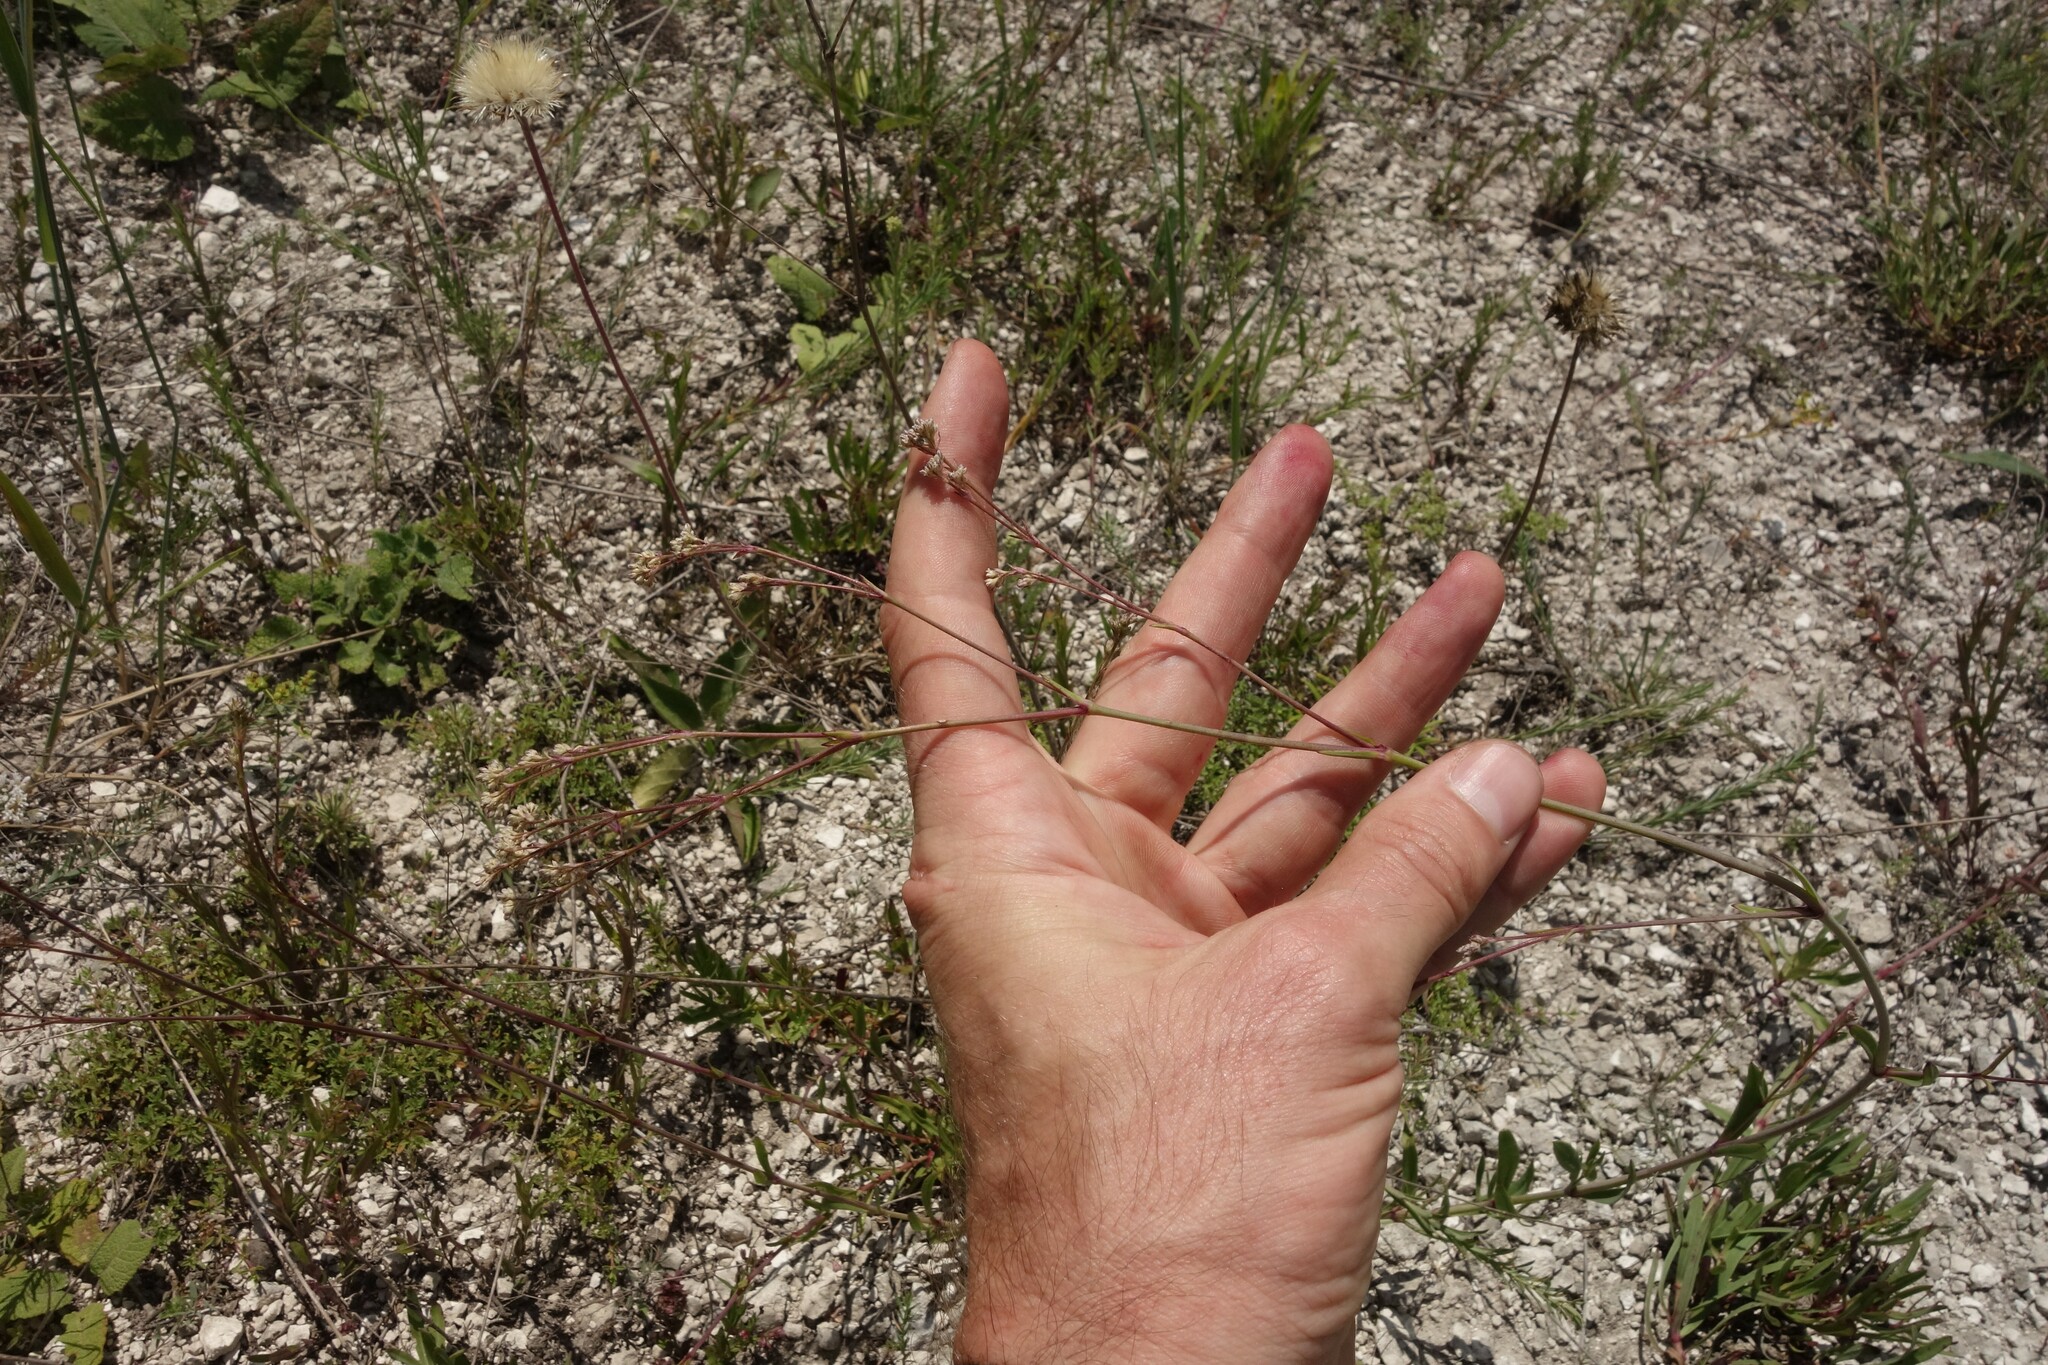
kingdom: Plantae
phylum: Tracheophyta
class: Magnoliopsida
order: Caryophyllales
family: Caryophyllaceae
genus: Gypsophila
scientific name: Gypsophila altissima
